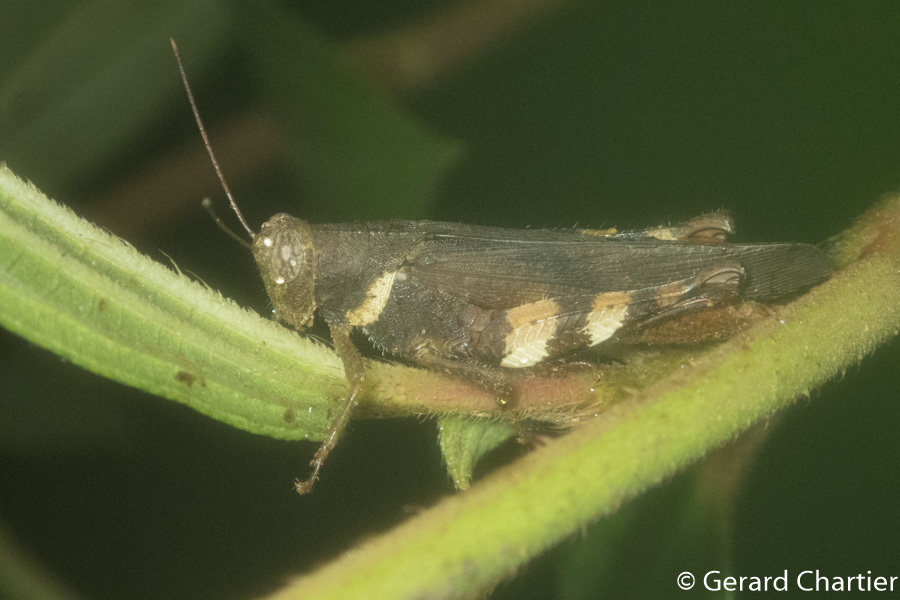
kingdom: Animalia
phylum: Arthropoda
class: Insecta
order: Orthoptera
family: Acrididae
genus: Apalacris
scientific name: Apalacris varicornis
